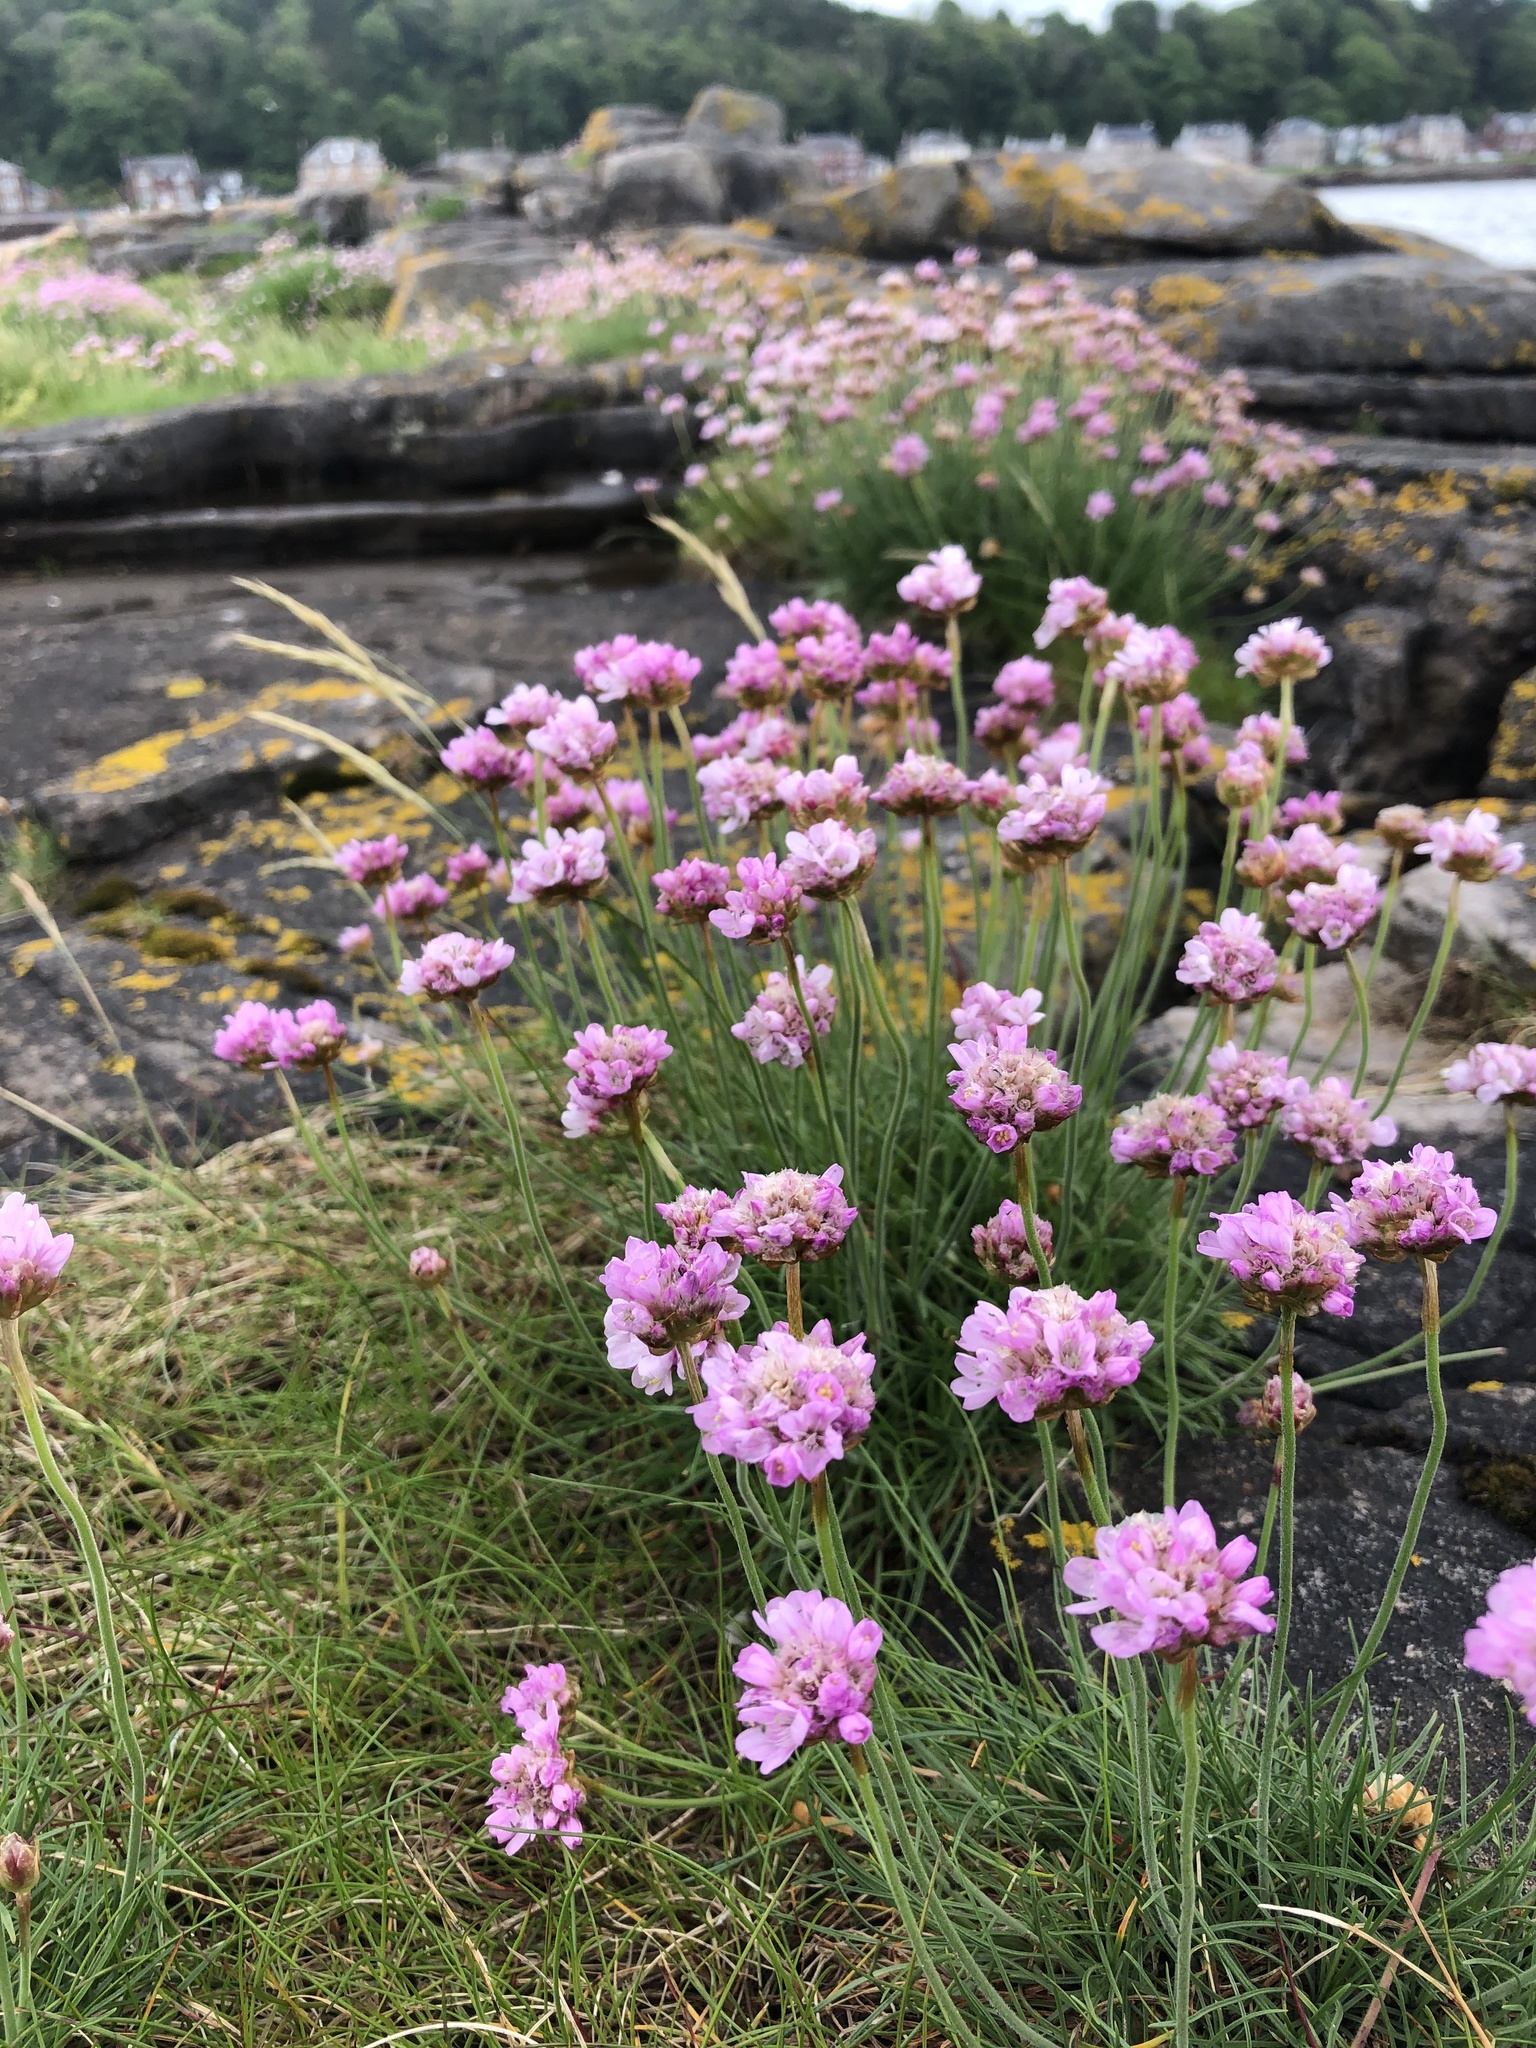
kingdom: Plantae
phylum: Tracheophyta
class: Magnoliopsida
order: Caryophyllales
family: Plumbaginaceae
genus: Armeria
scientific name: Armeria maritima
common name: Thrift
